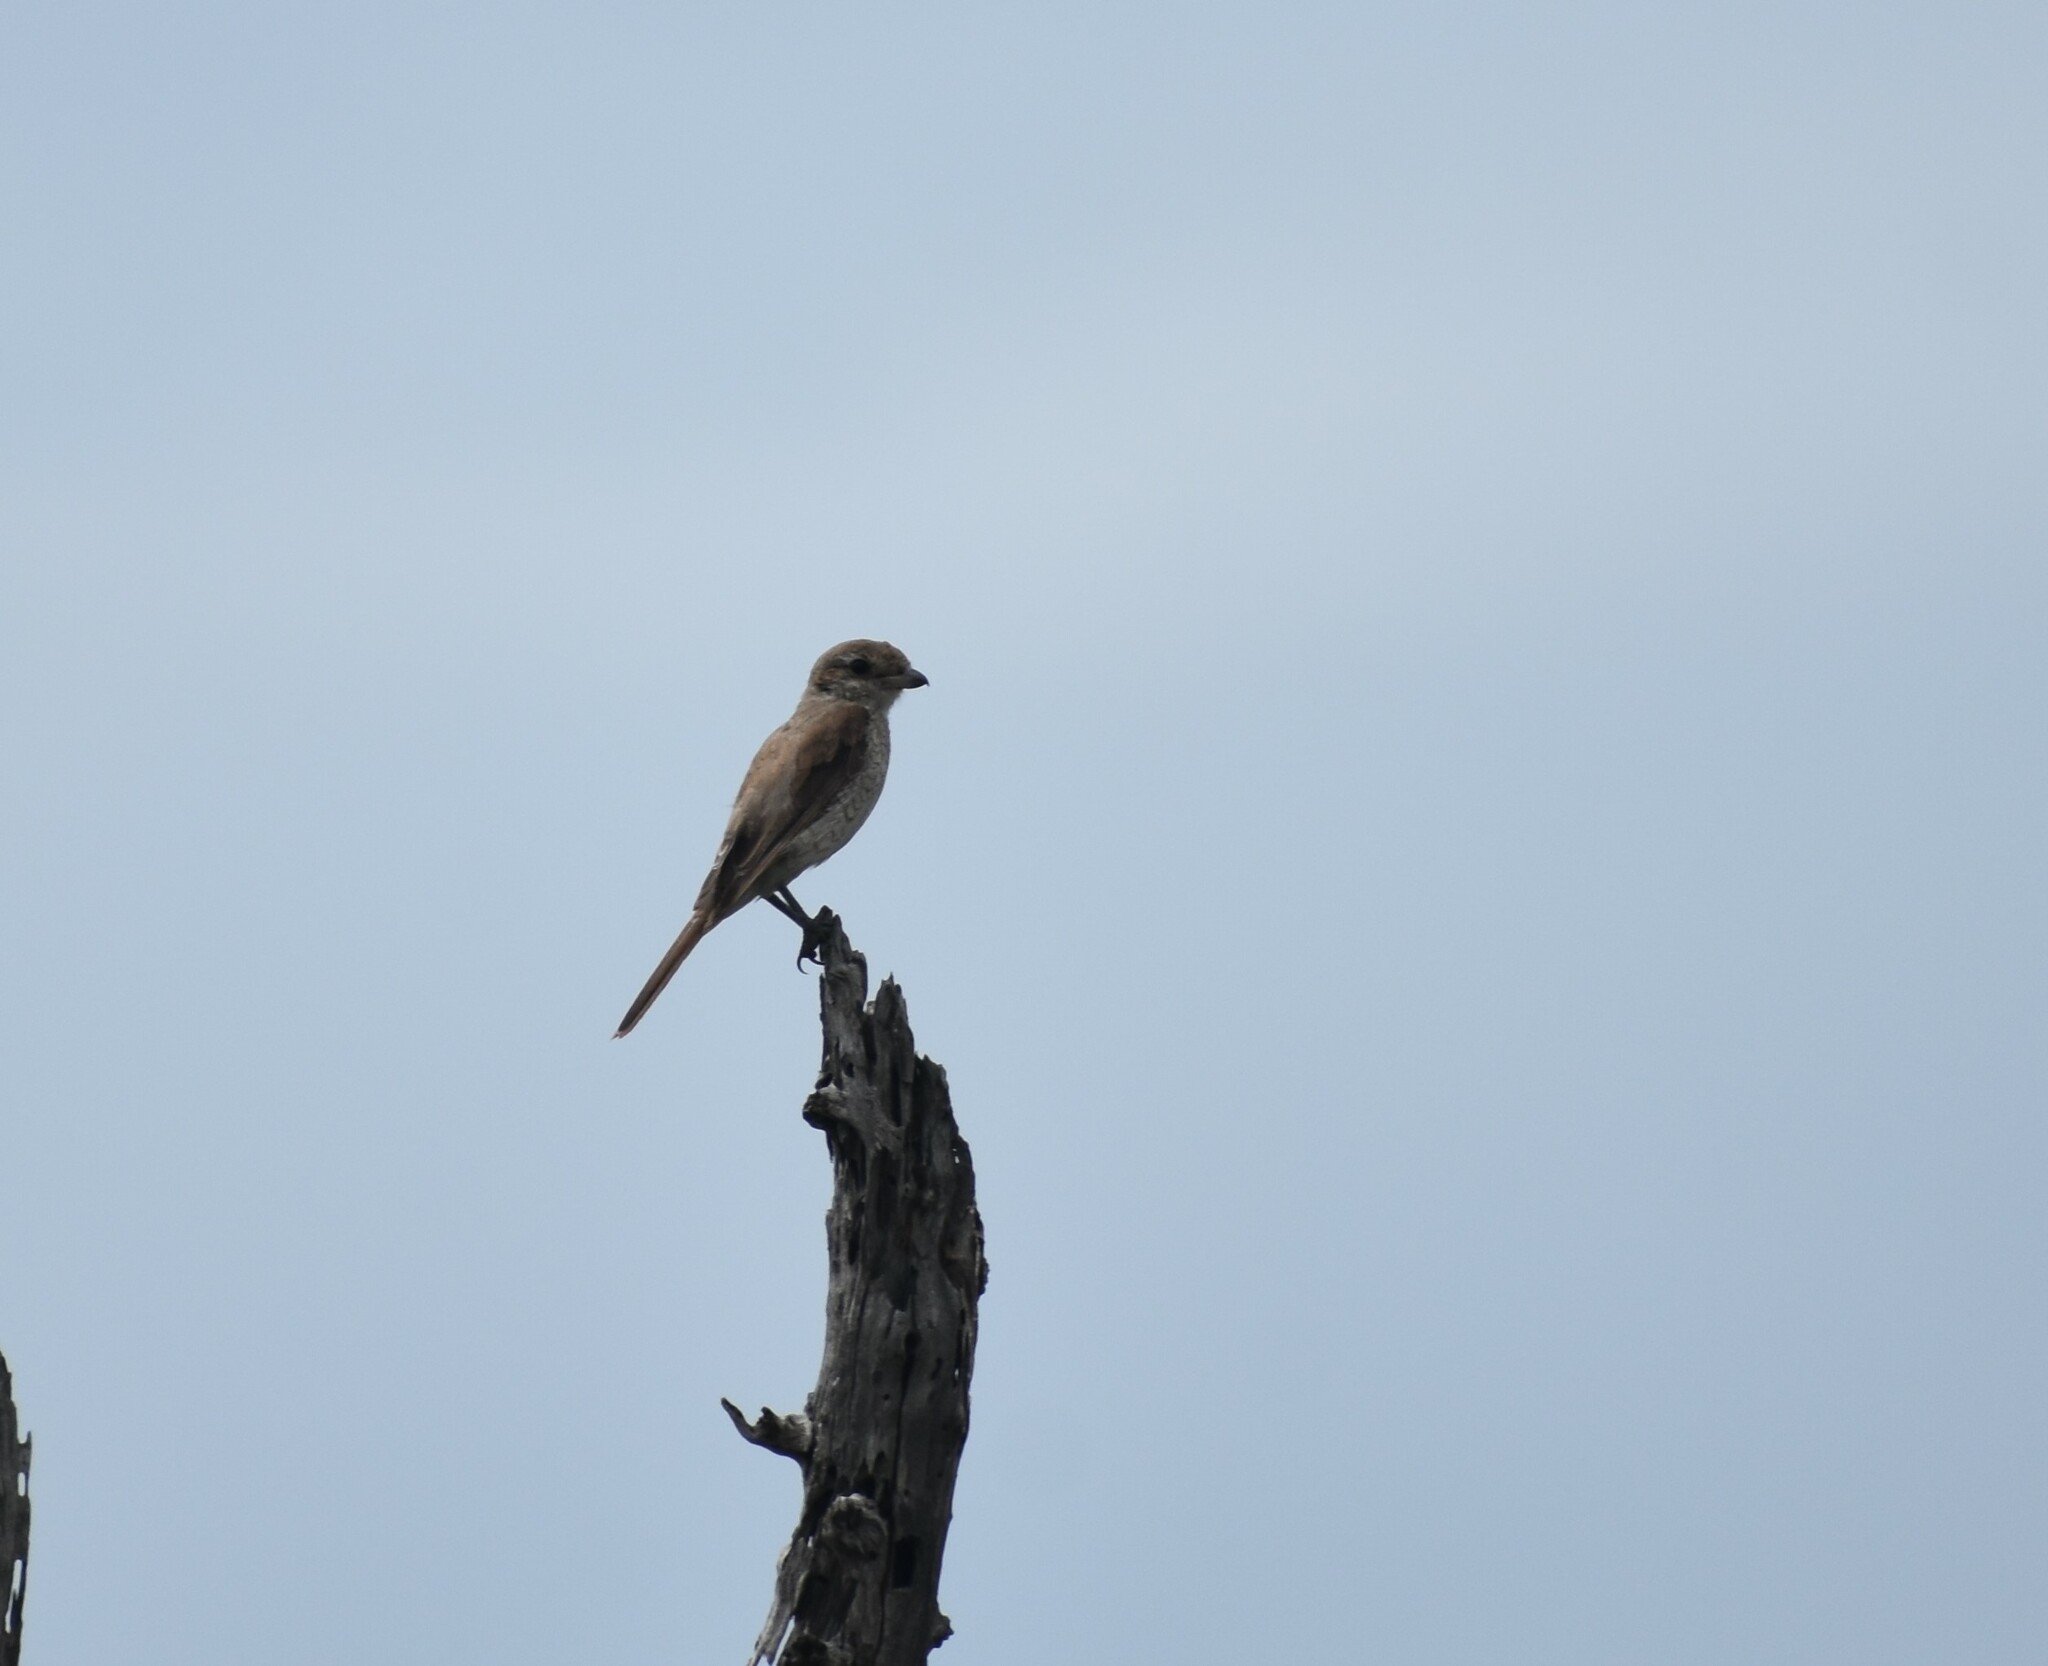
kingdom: Animalia
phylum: Chordata
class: Aves
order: Passeriformes
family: Laniidae
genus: Lanius
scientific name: Lanius collurio
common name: Red-backed shrike
